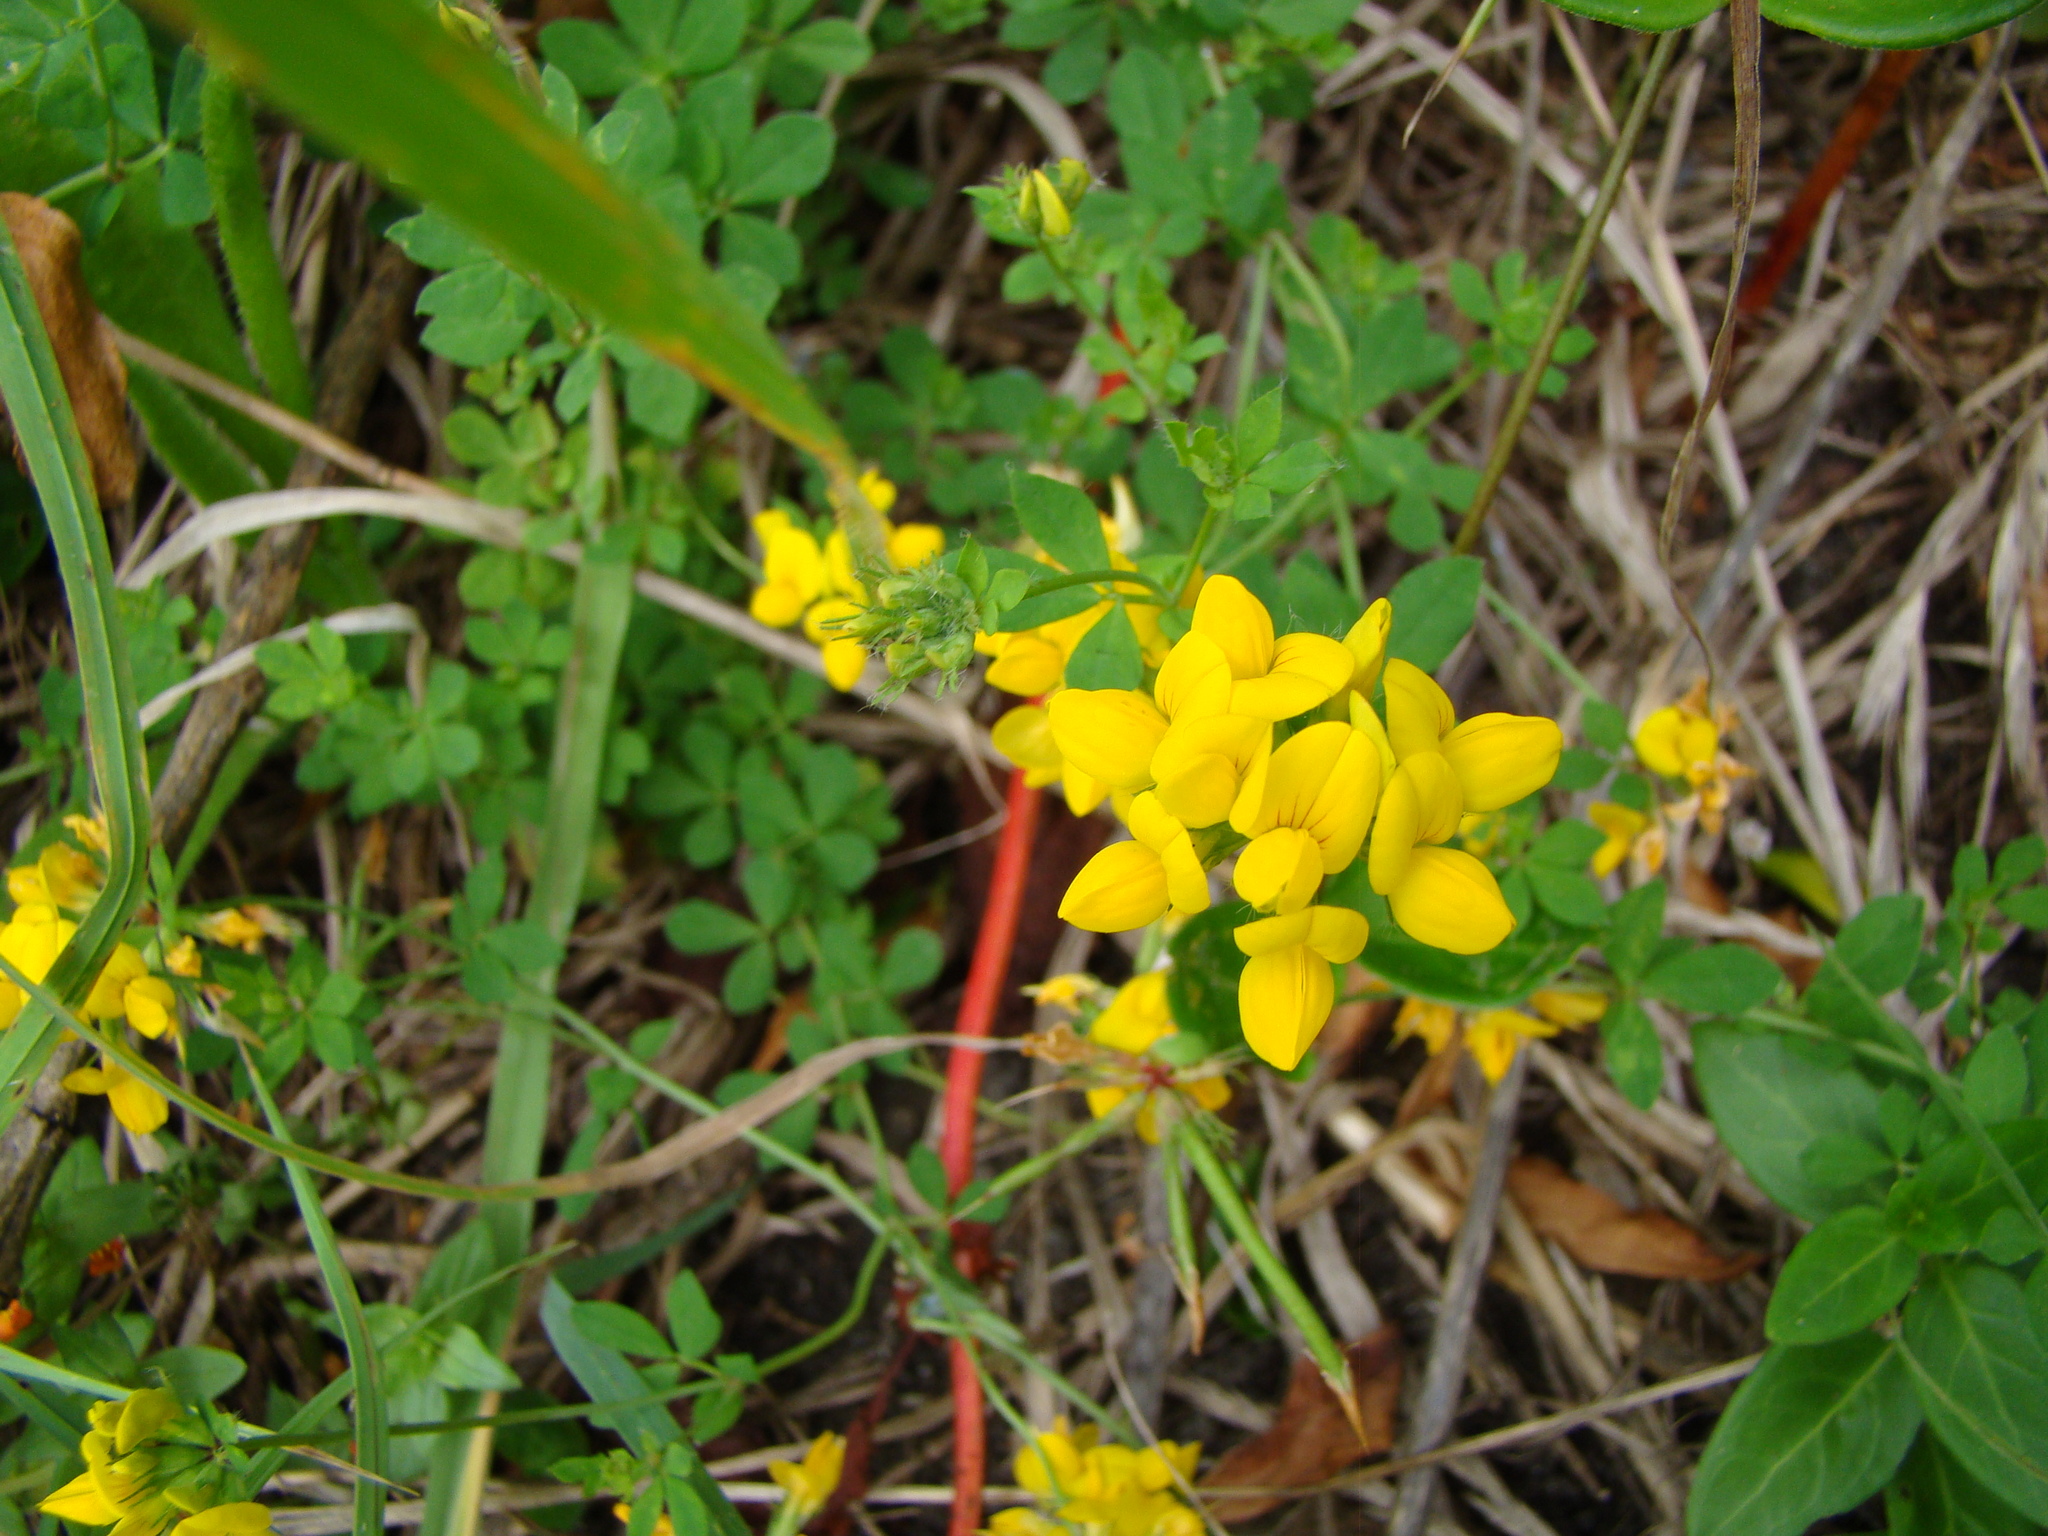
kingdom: Plantae
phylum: Tracheophyta
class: Magnoliopsida
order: Fabales
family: Fabaceae
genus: Lotus
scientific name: Lotus pedunculatus
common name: Greater birdsfoot-trefoil
